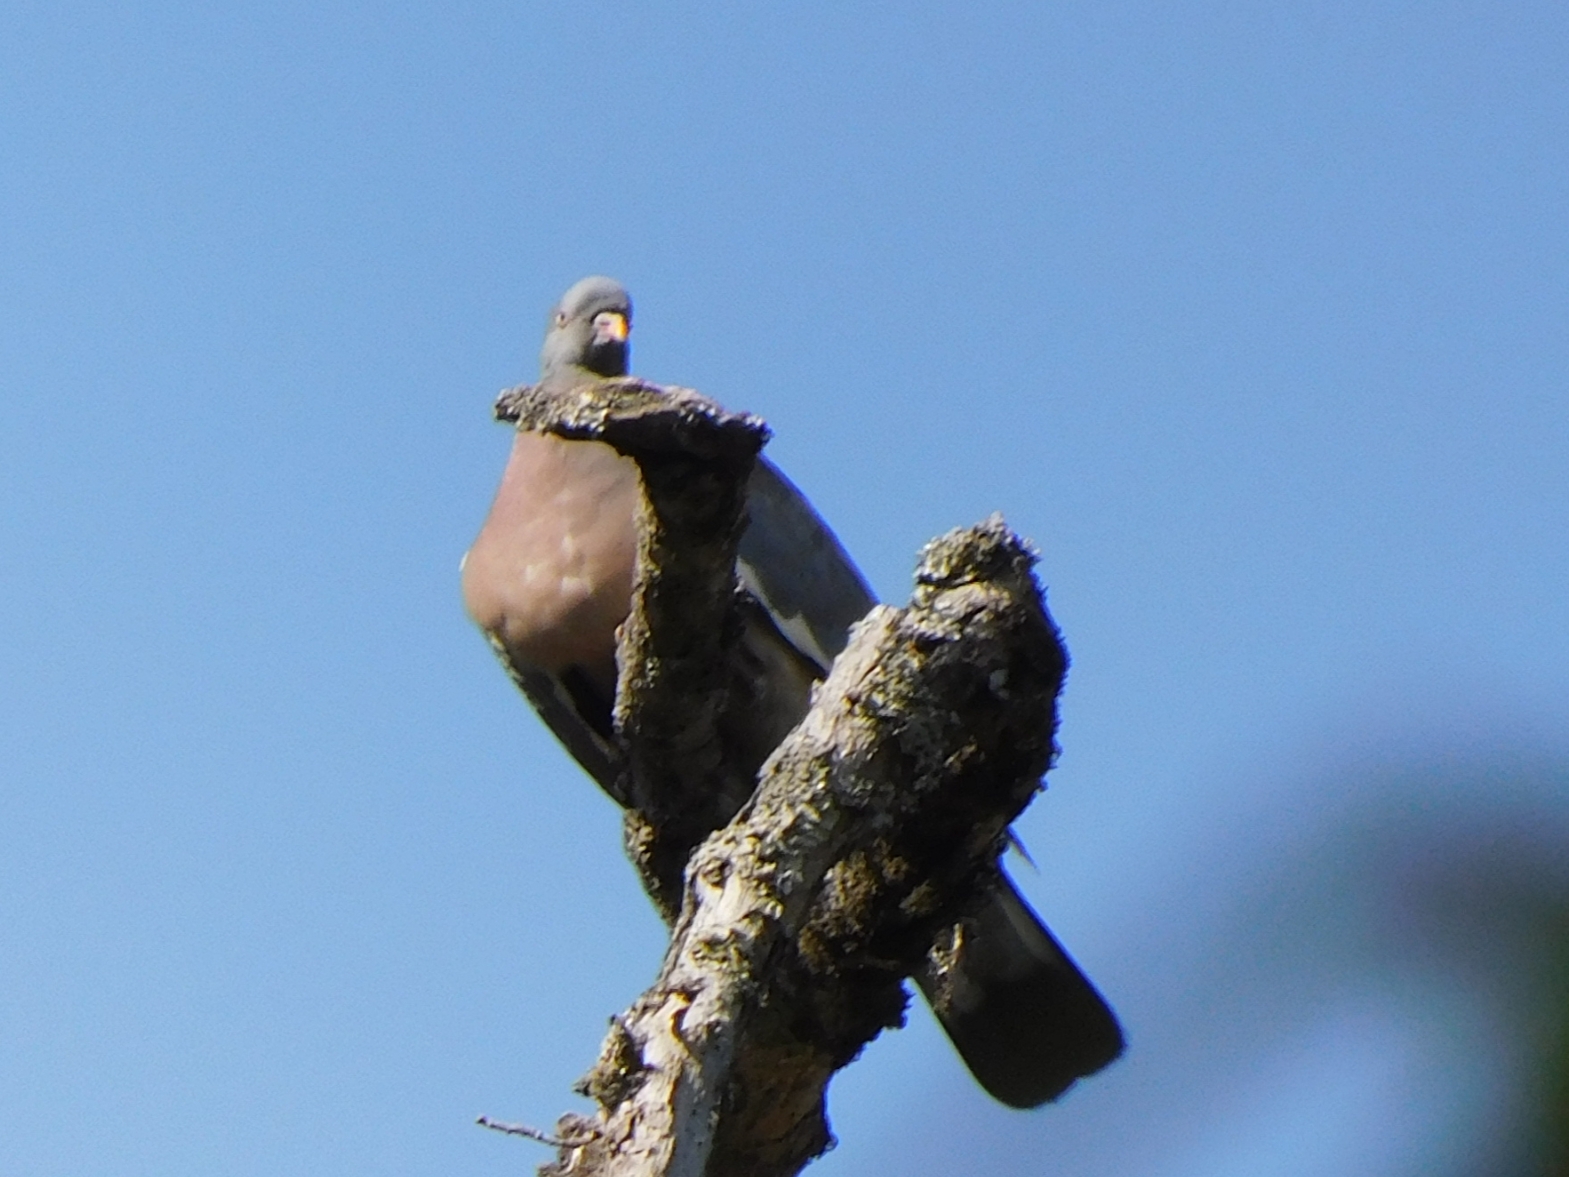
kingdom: Animalia
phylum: Chordata
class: Aves
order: Columbiformes
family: Columbidae
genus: Columba
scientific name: Columba palumbus
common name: Common wood pigeon
